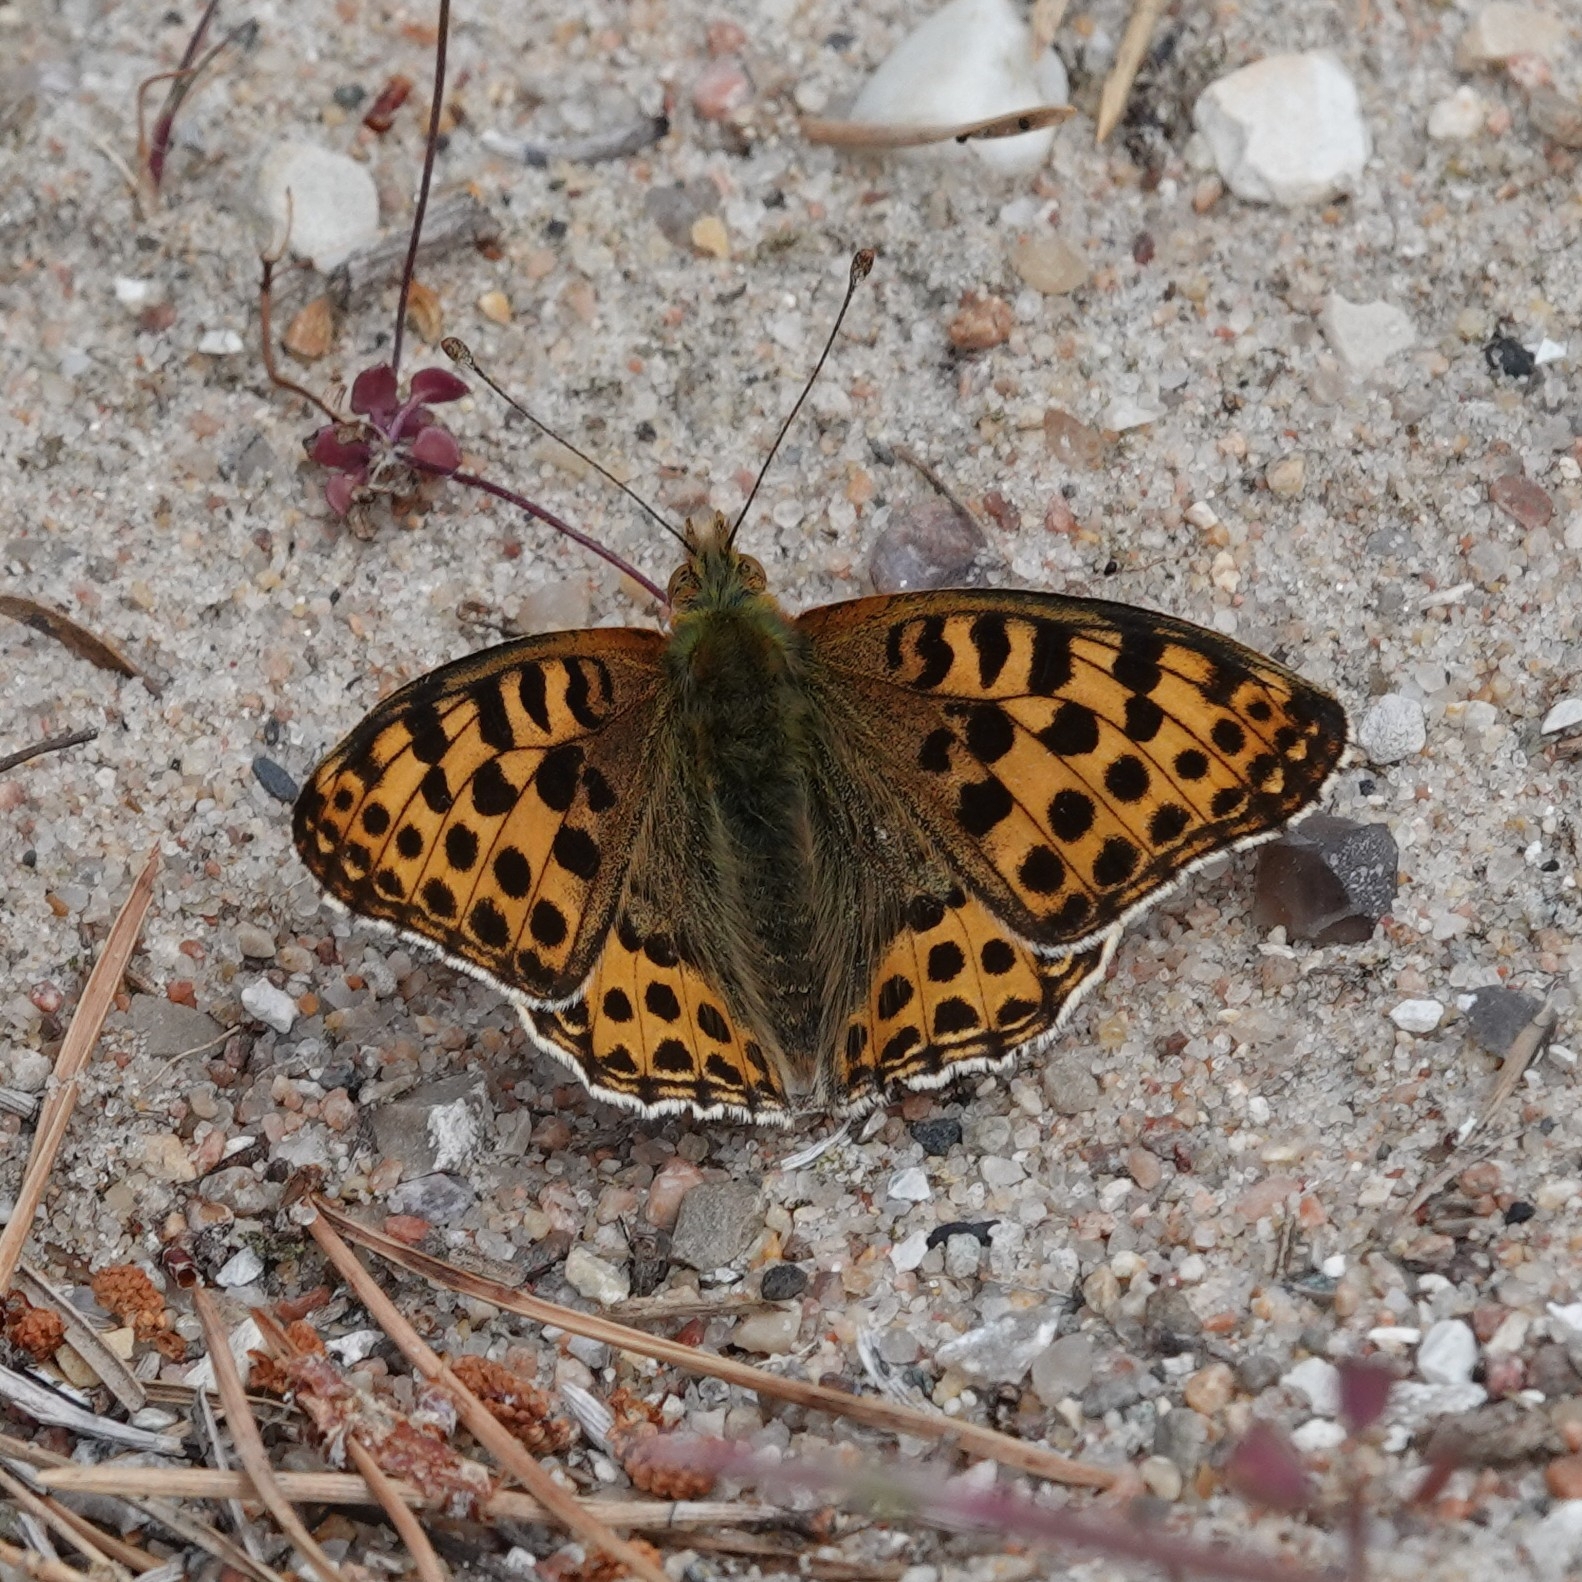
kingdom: Animalia
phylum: Arthropoda
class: Insecta
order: Lepidoptera
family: Nymphalidae
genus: Issoria
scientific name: Issoria lathonia
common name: Queen of spain fritillary
